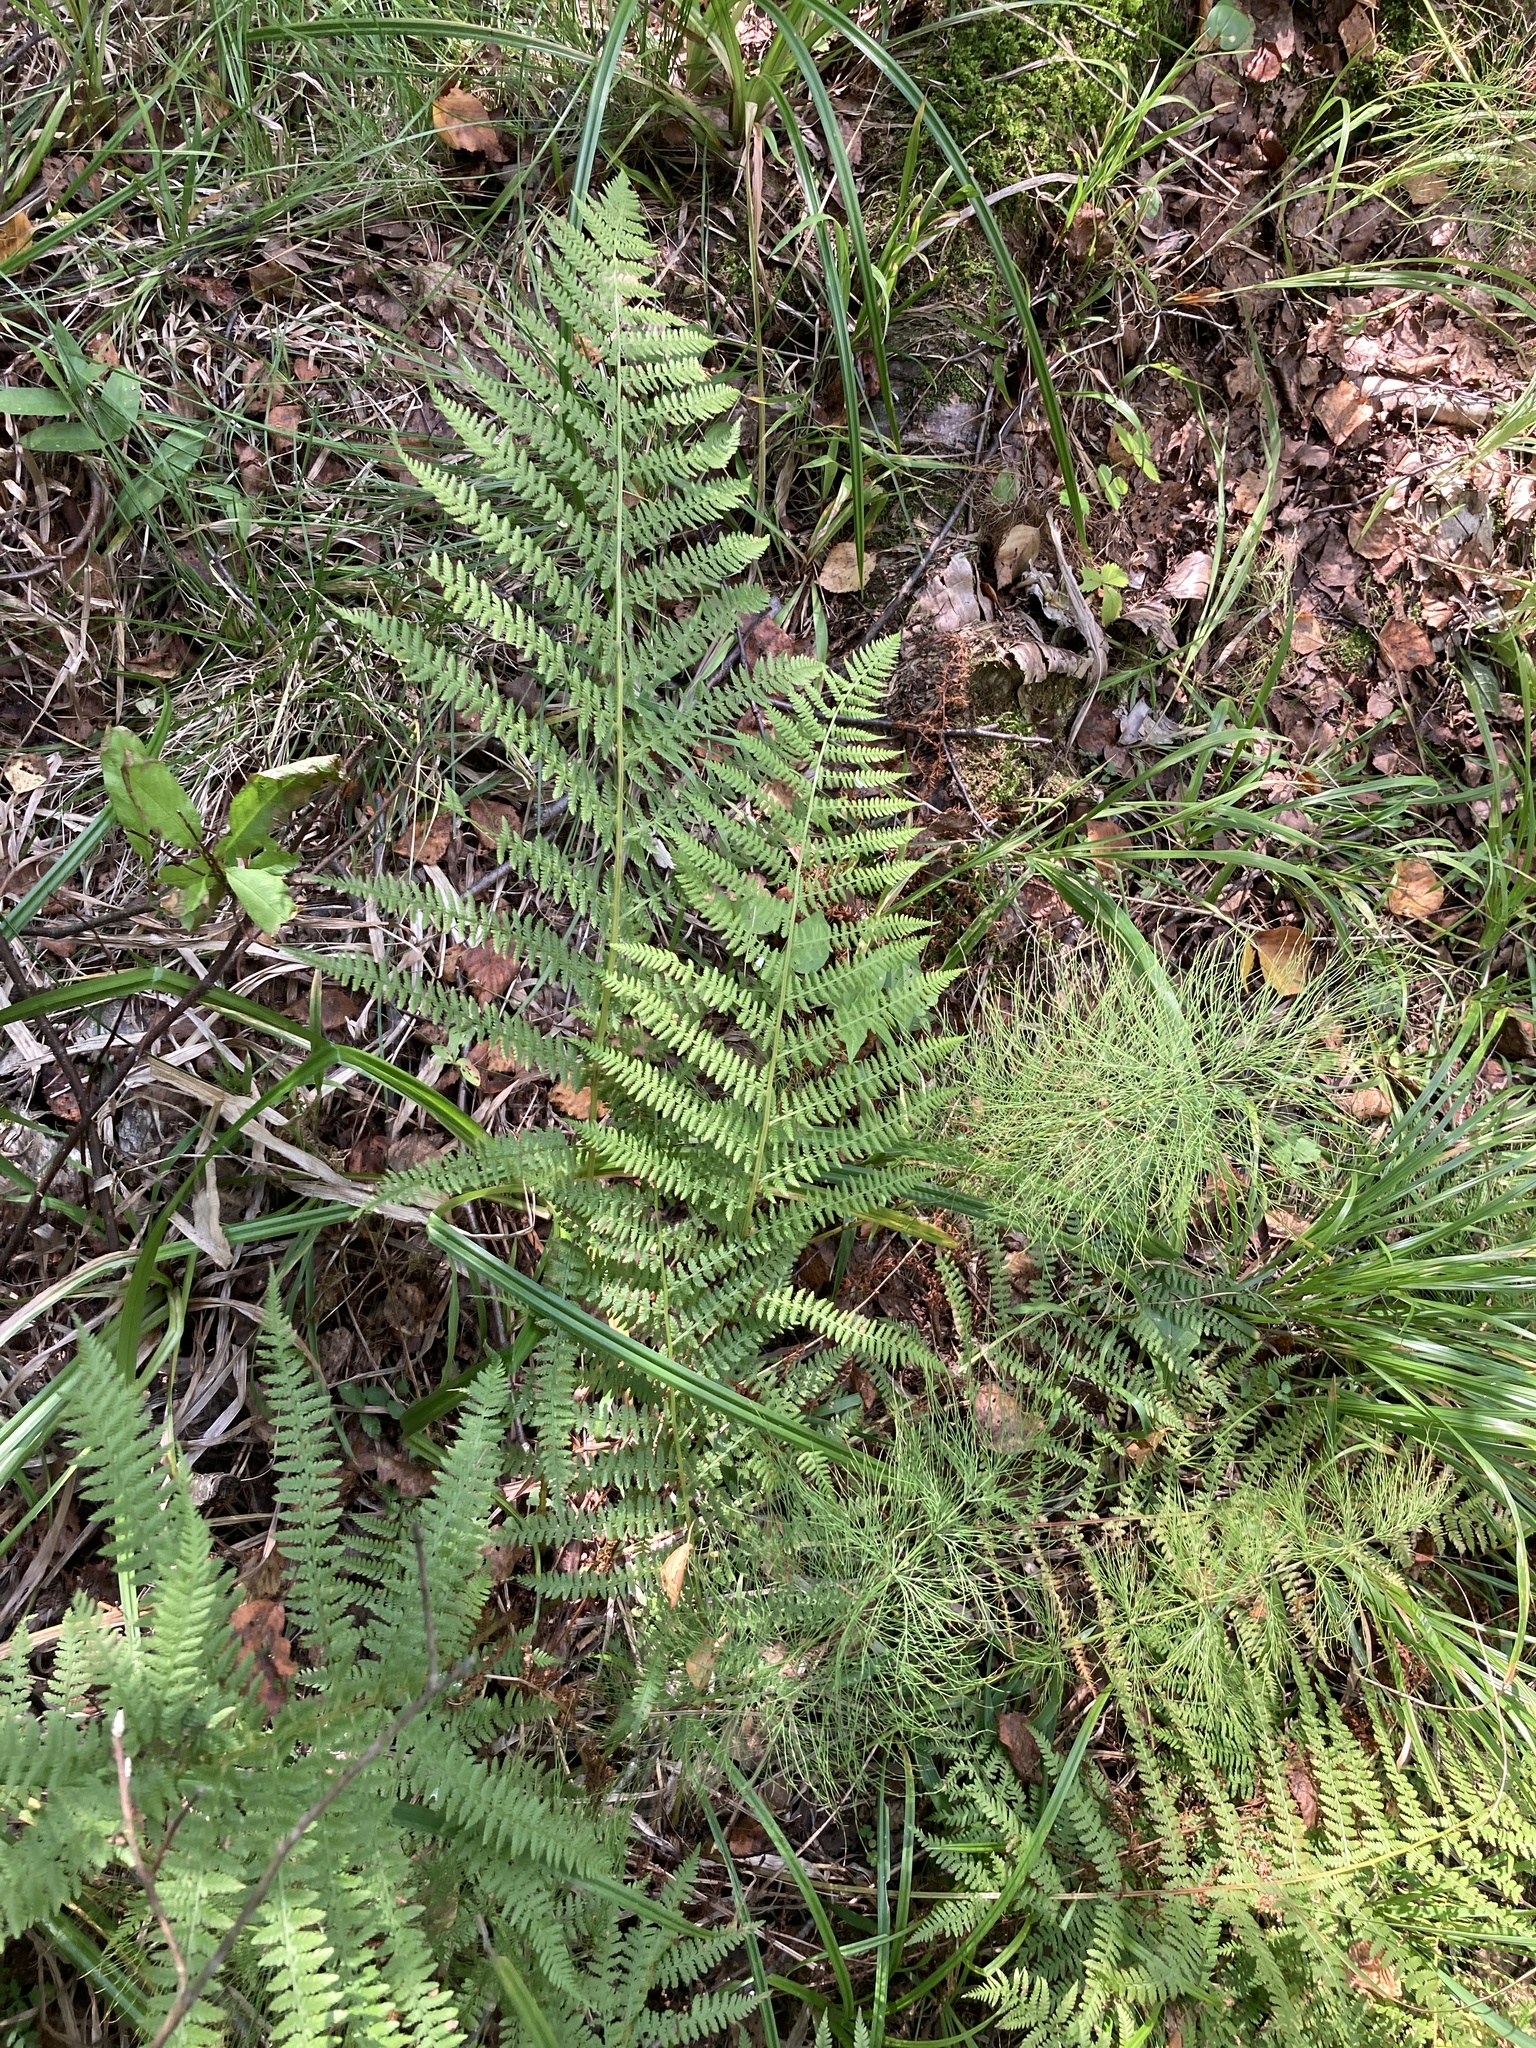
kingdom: Plantae
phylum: Tracheophyta
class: Polypodiopsida
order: Polypodiales
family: Athyriaceae
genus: Athyrium
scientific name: Athyrium filix-femina
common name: Lady fern
